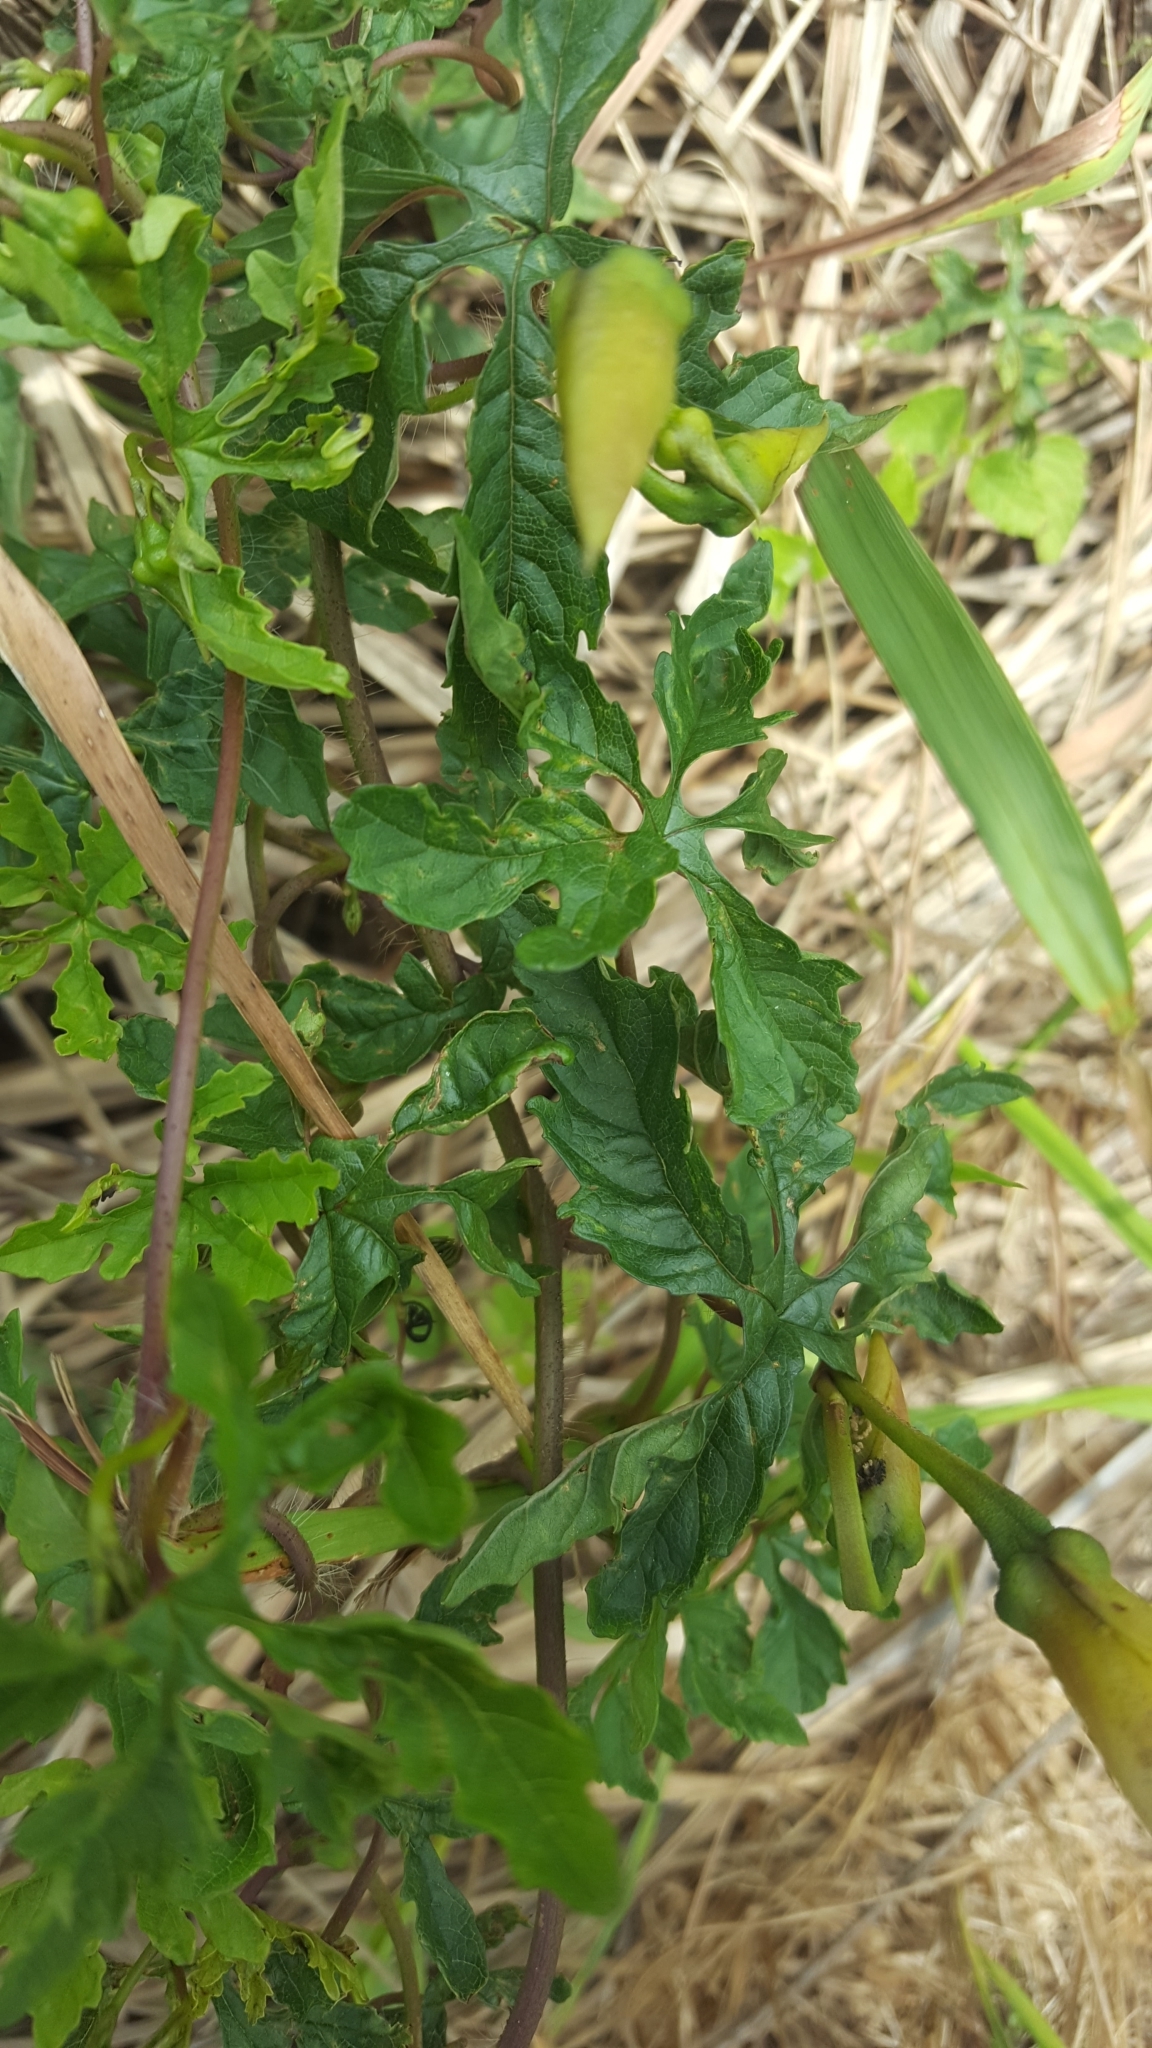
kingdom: Plantae
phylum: Tracheophyta
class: Magnoliopsida
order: Solanales
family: Convolvulaceae
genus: Distimake
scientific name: Distimake dissectus
